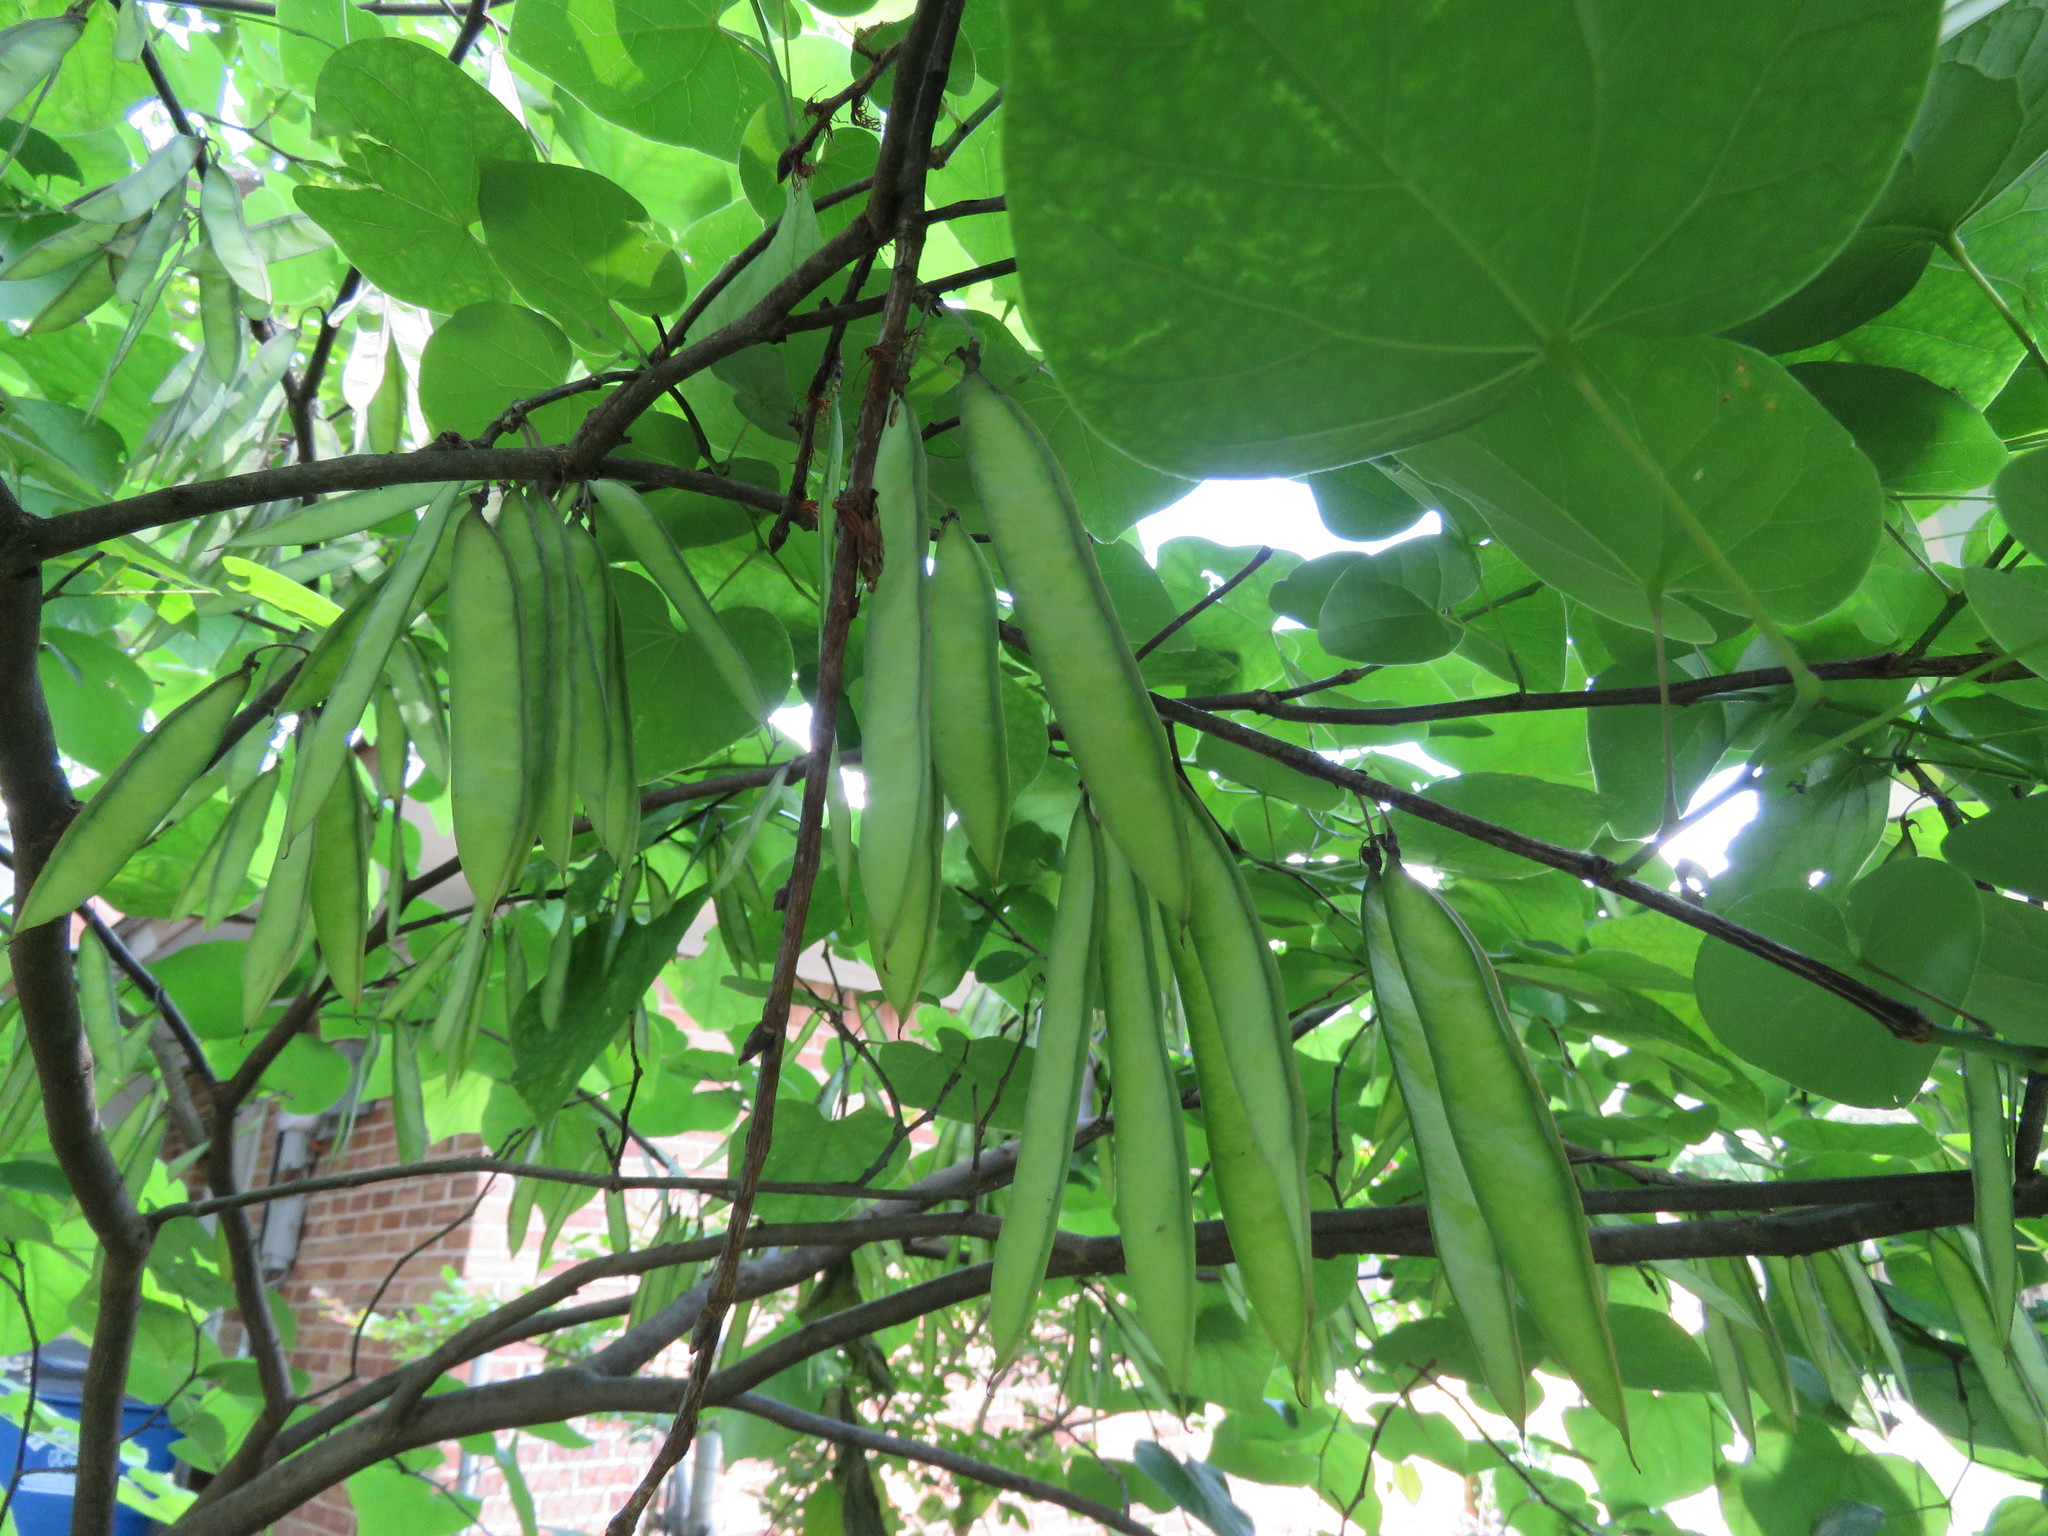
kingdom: Plantae
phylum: Tracheophyta
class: Magnoliopsida
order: Fabales
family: Fabaceae
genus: Cercis
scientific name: Cercis canadensis
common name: Eastern redbud
